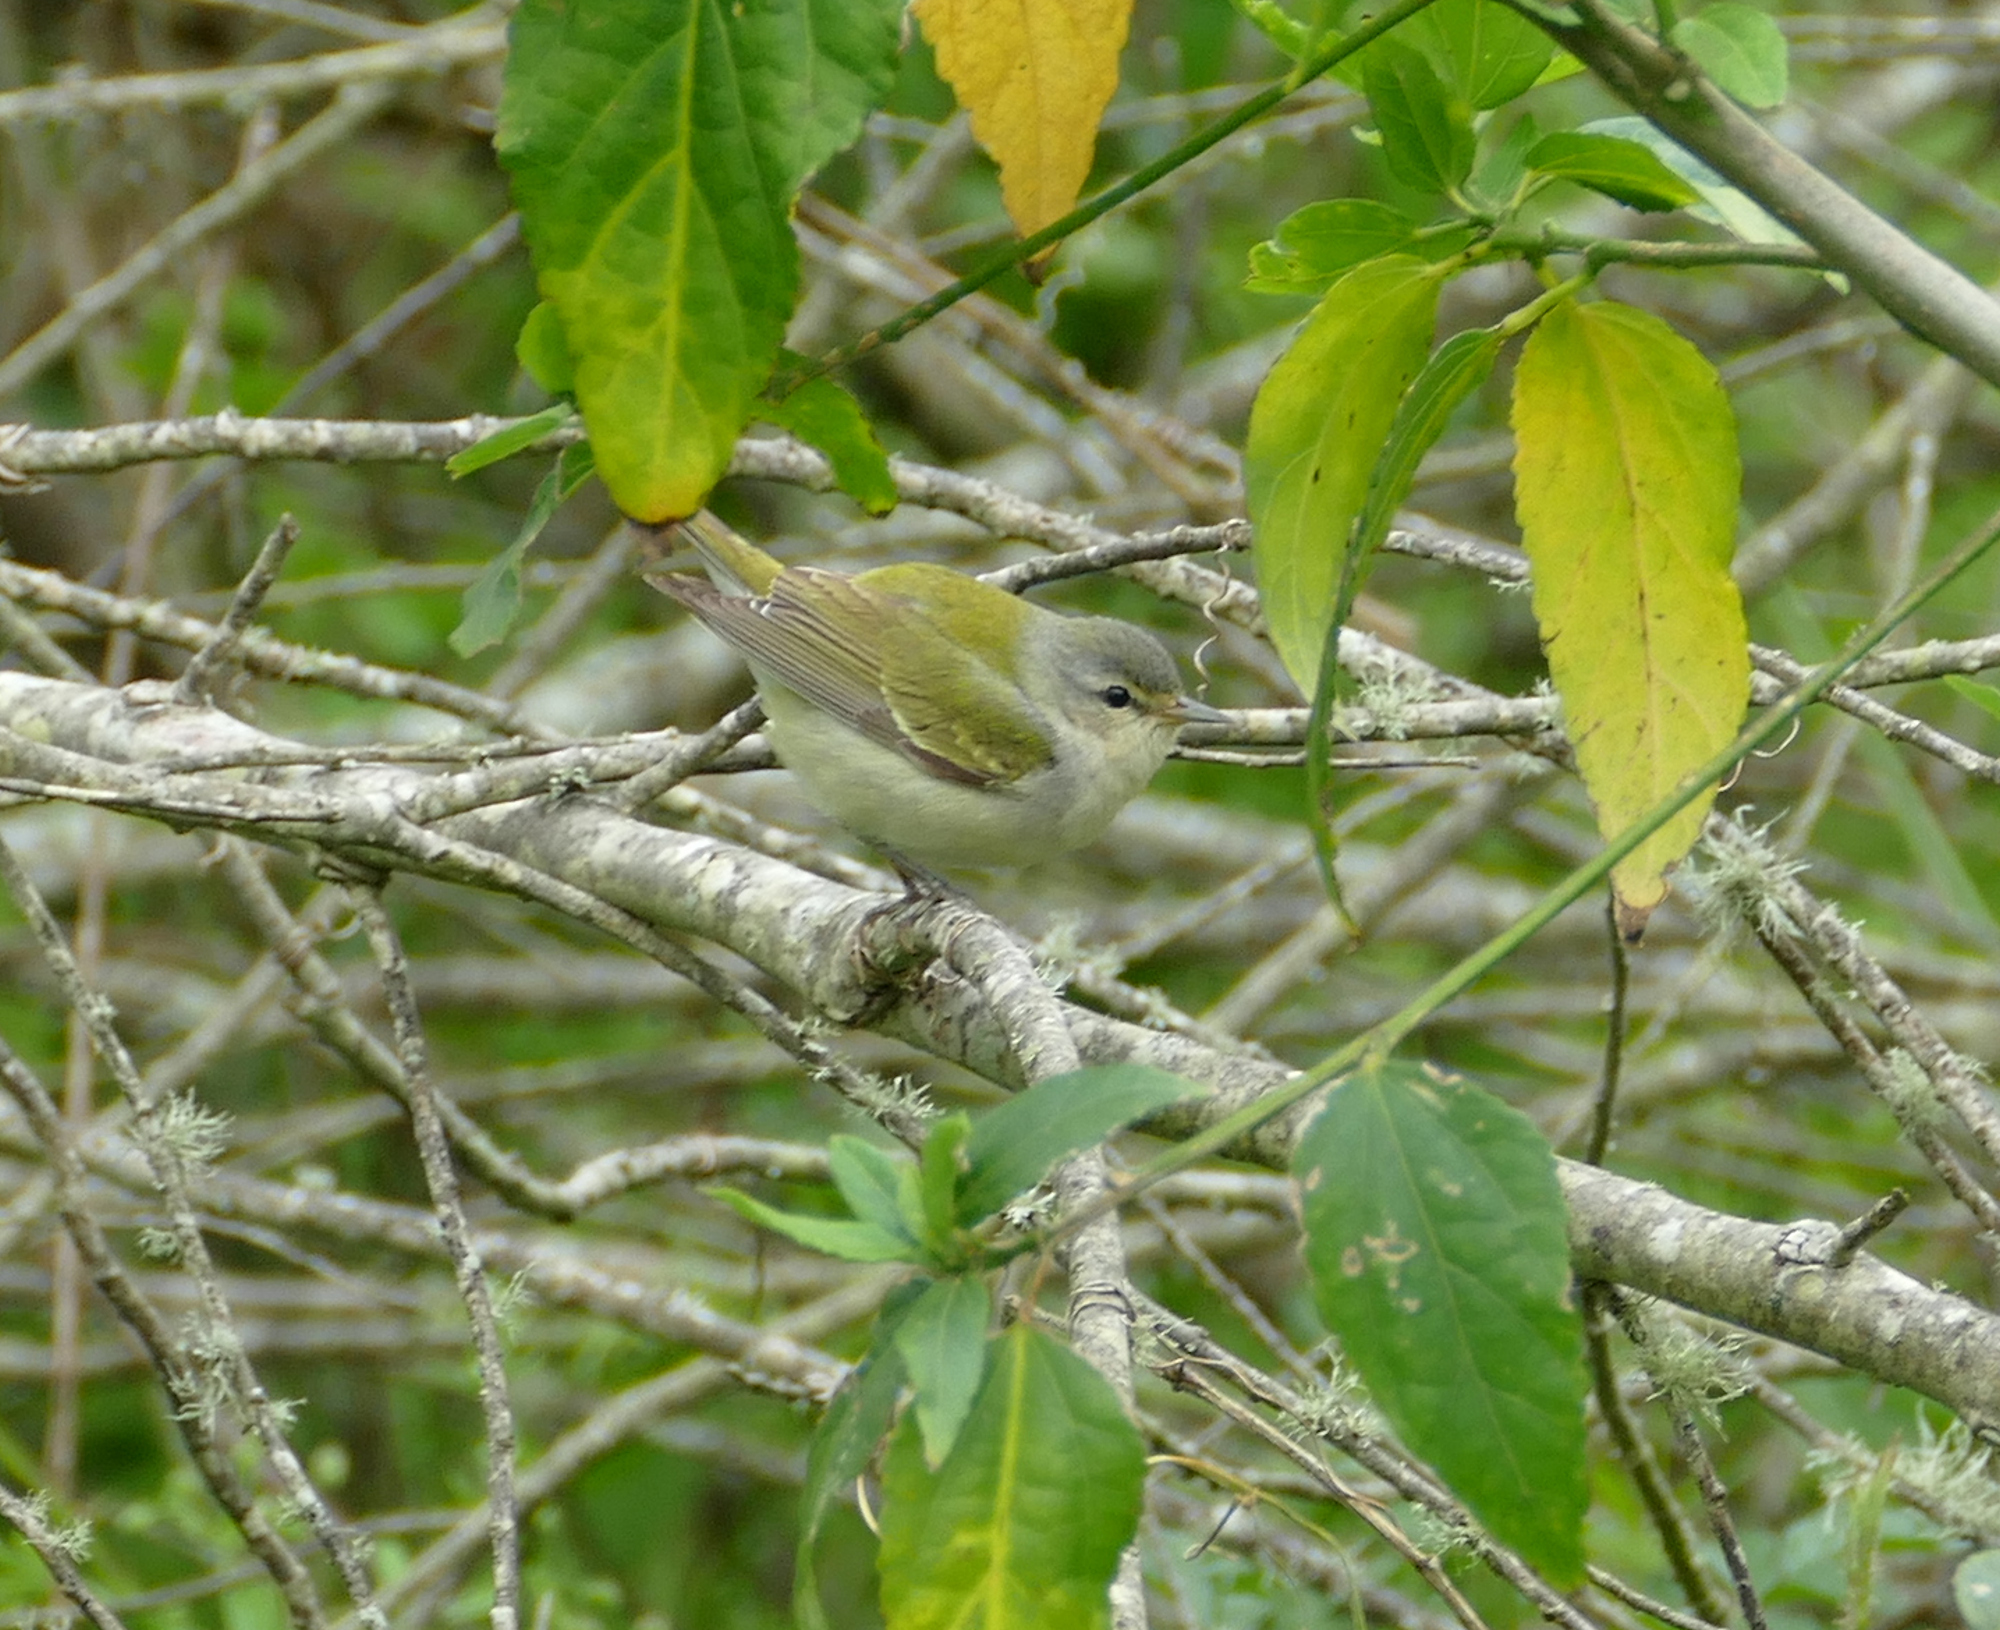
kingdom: Animalia
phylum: Chordata
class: Aves
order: Passeriformes
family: Parulidae
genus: Leiothlypis
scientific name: Leiothlypis peregrina
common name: Tennessee warbler
